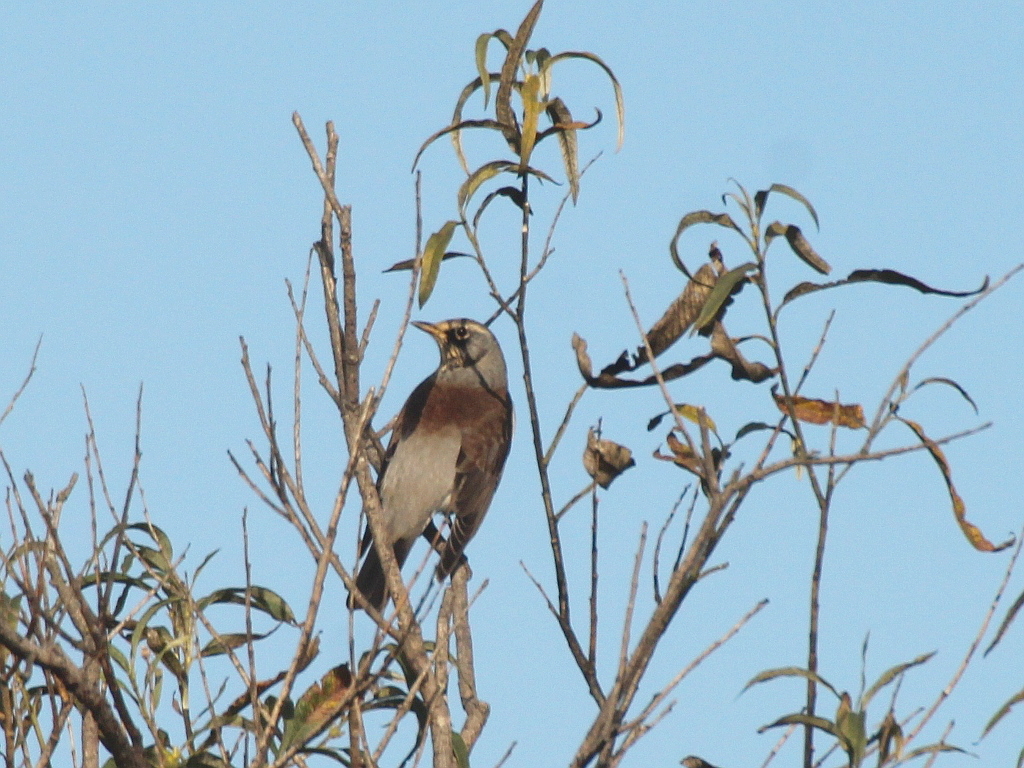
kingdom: Animalia
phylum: Chordata
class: Aves
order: Passeriformes
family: Turdidae
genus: Turdus
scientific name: Turdus pilaris
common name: Fieldfare
